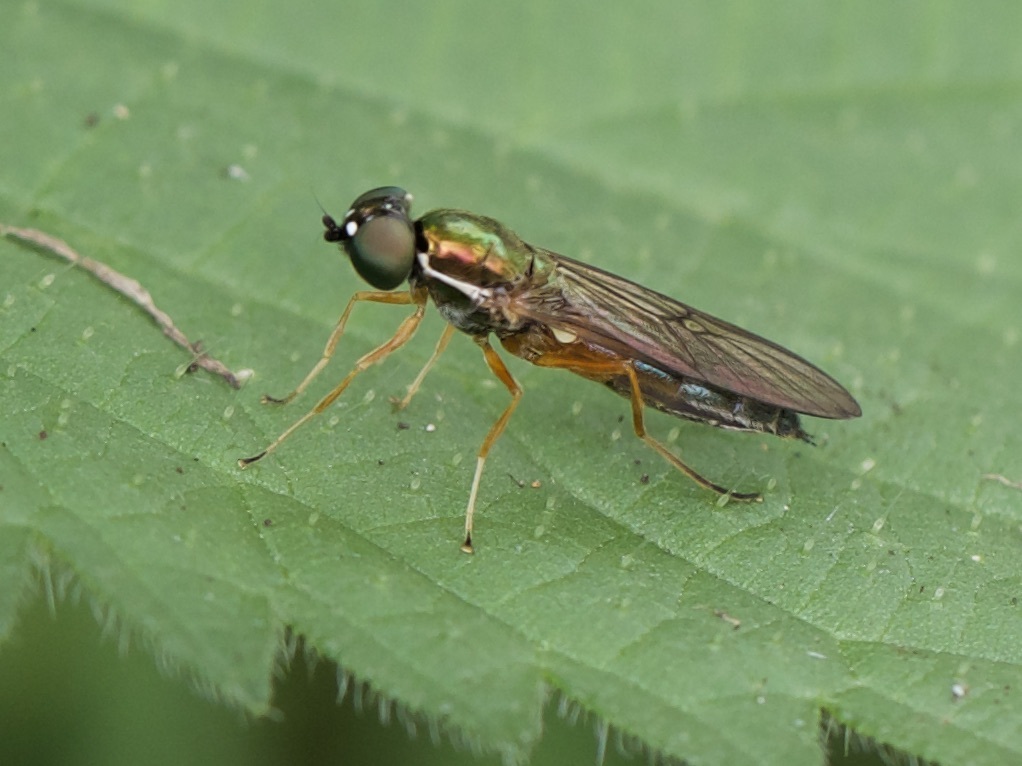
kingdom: Animalia
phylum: Arthropoda
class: Insecta
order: Diptera
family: Stratiomyidae
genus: Sargus
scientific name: Sargus bipunctatus
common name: Twin-spot centurion
